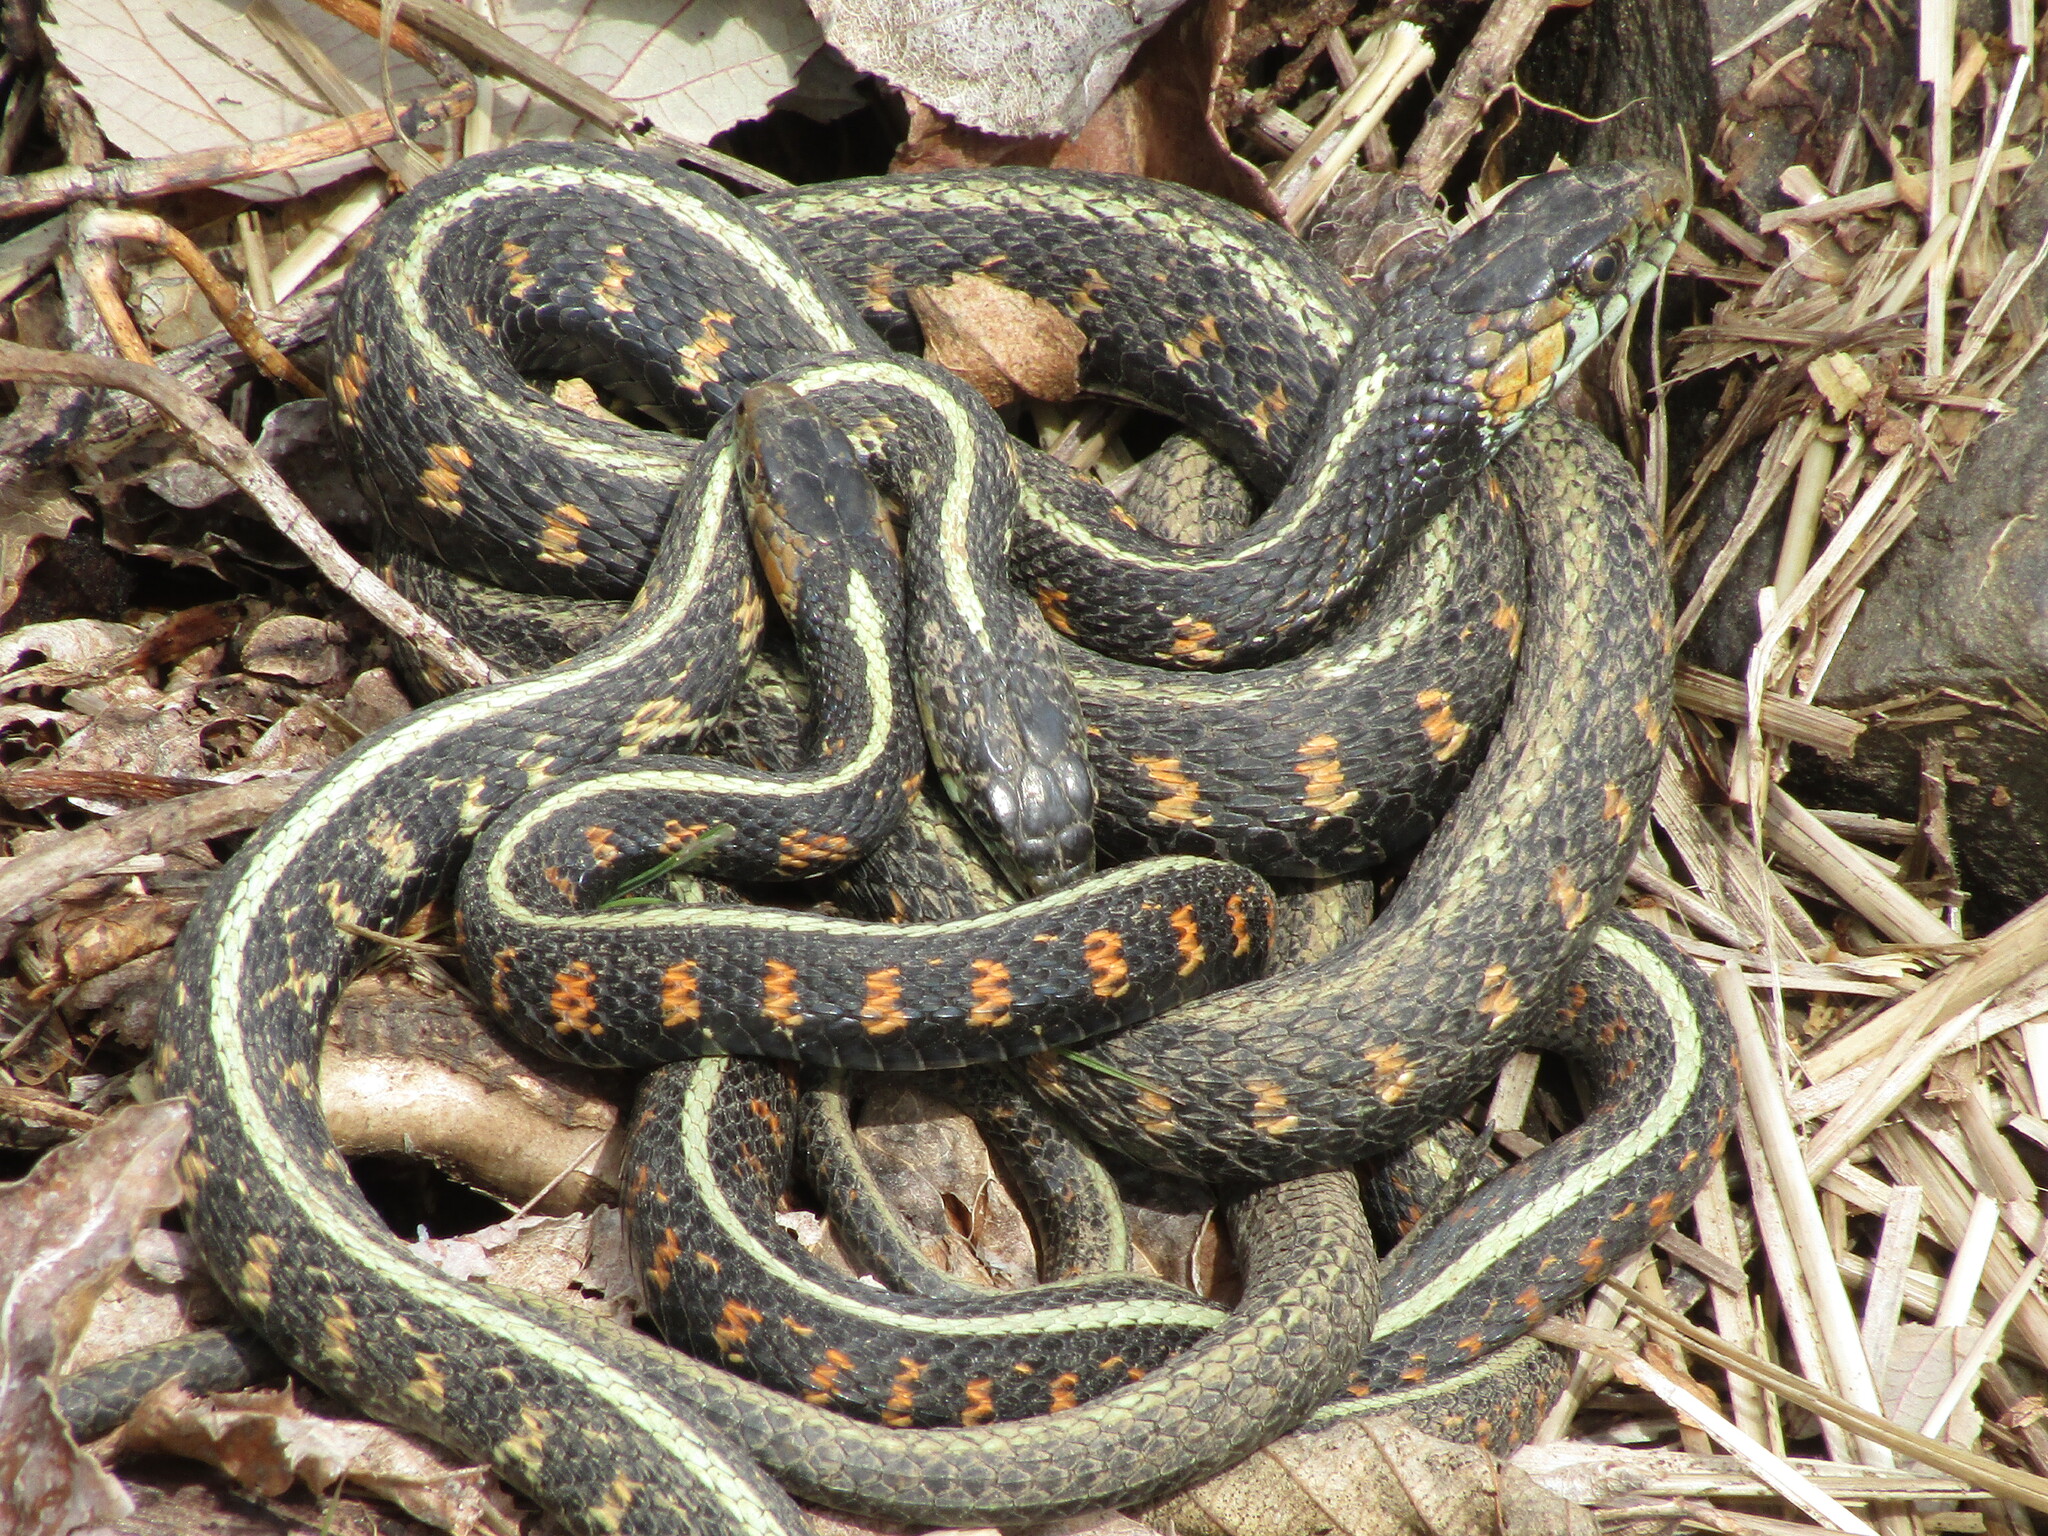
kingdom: Animalia
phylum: Chordata
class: Squamata
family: Colubridae
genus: Thamnophis
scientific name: Thamnophis sirtalis
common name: Common garter snake
